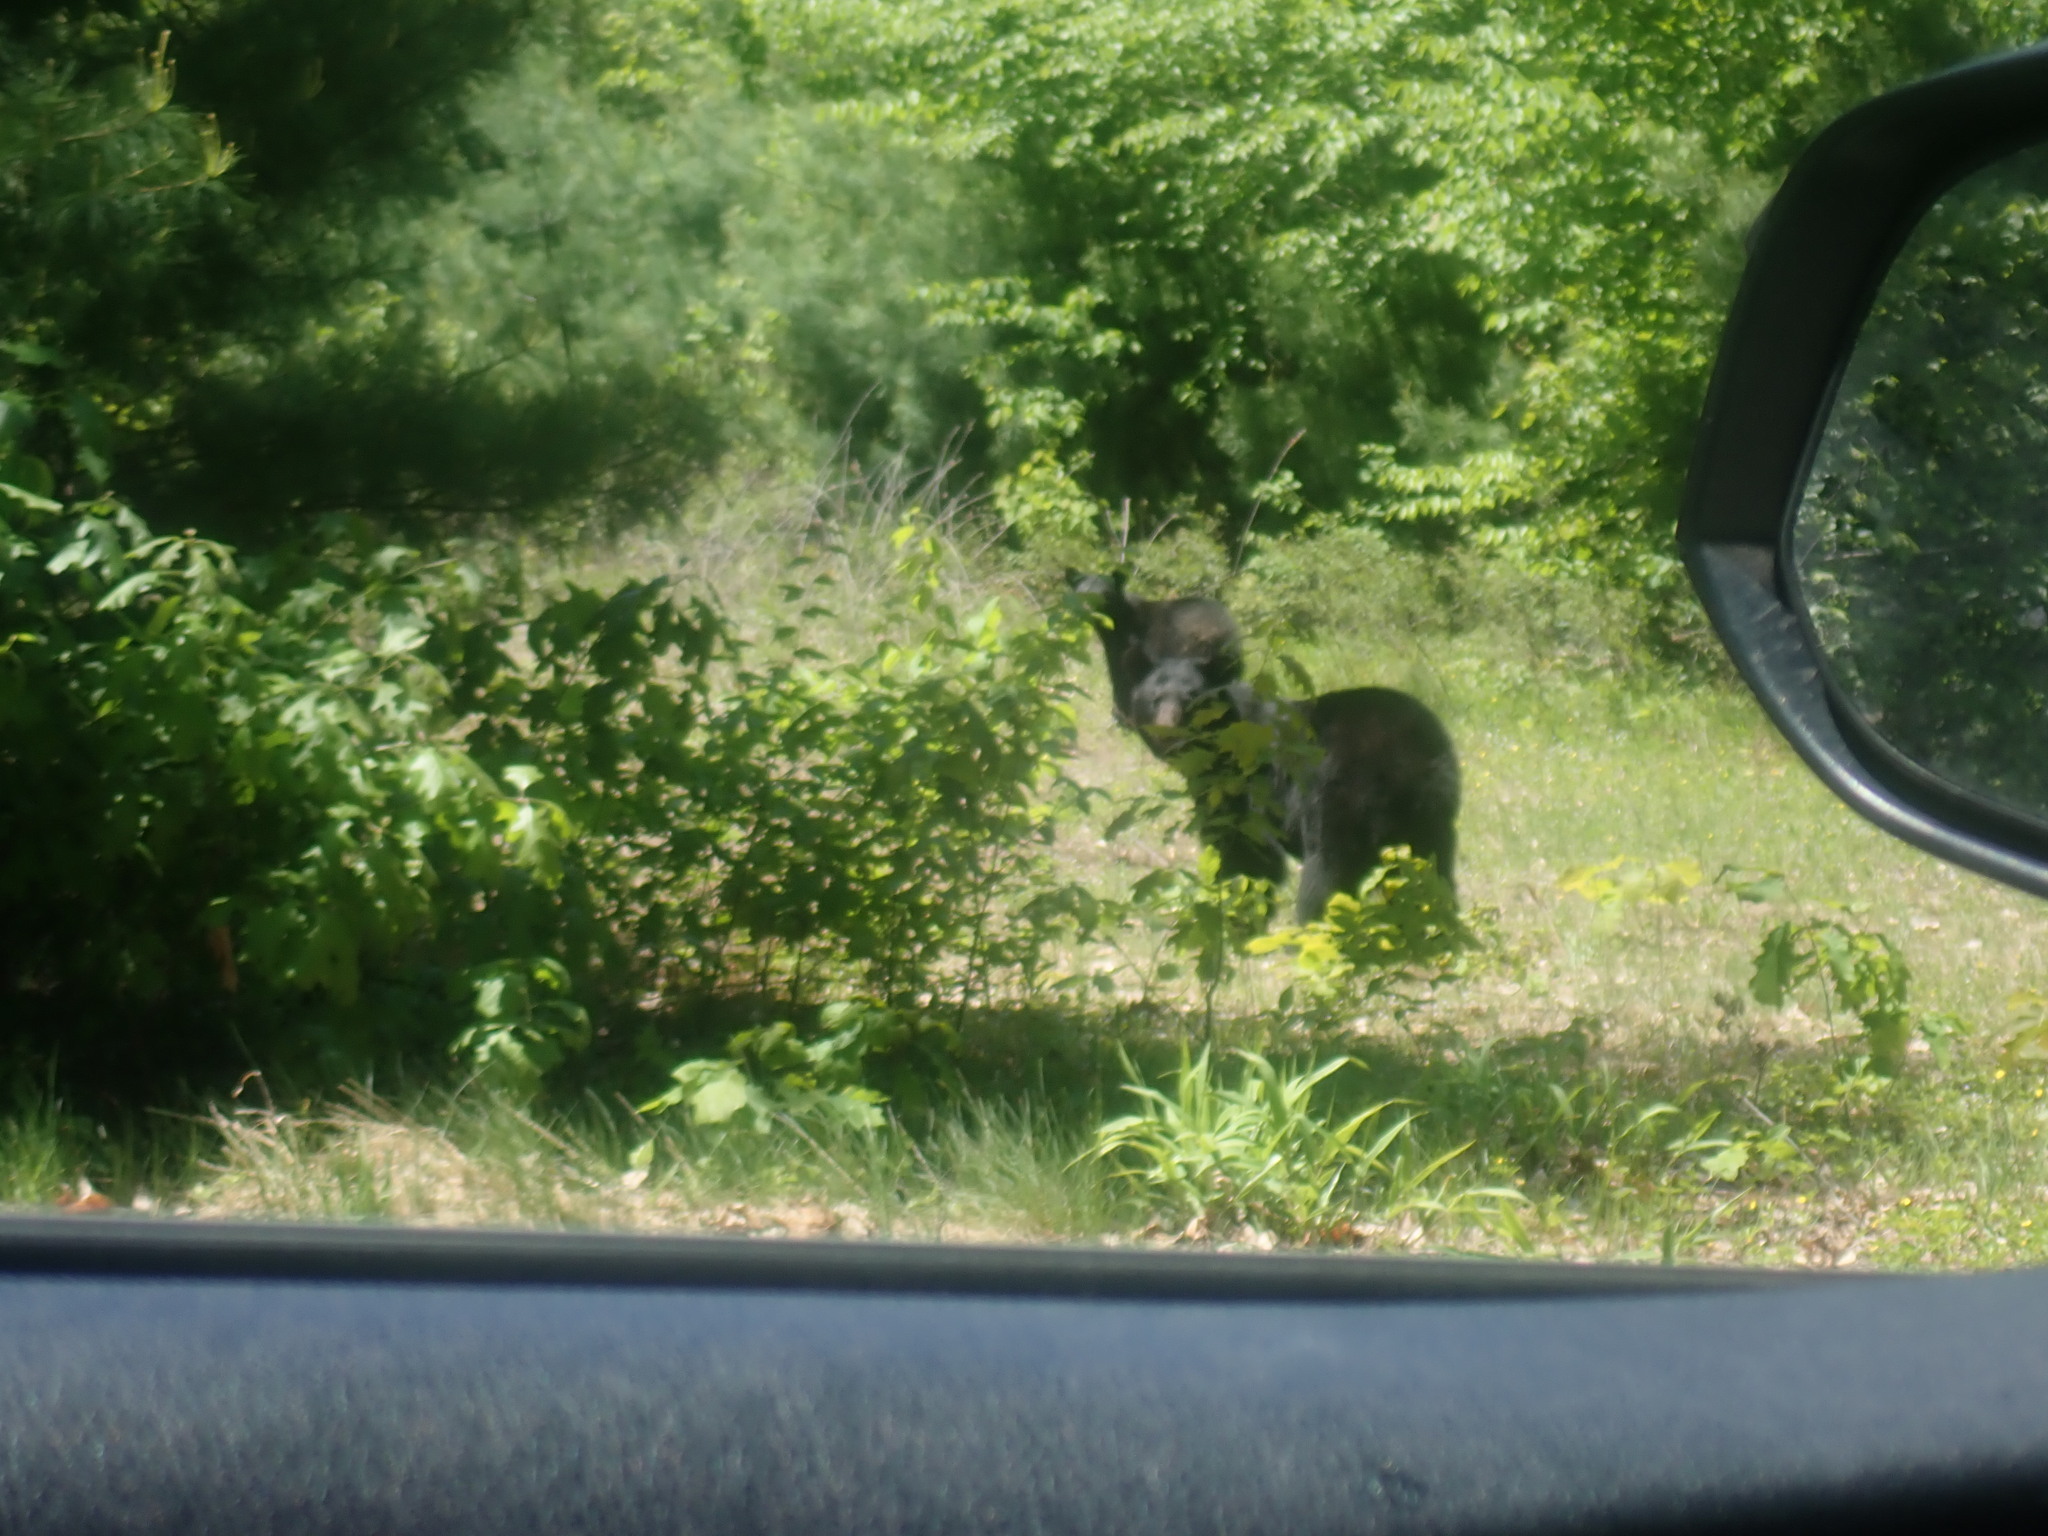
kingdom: Animalia
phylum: Chordata
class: Mammalia
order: Carnivora
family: Ursidae
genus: Ursus
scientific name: Ursus americanus
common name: American black bear
